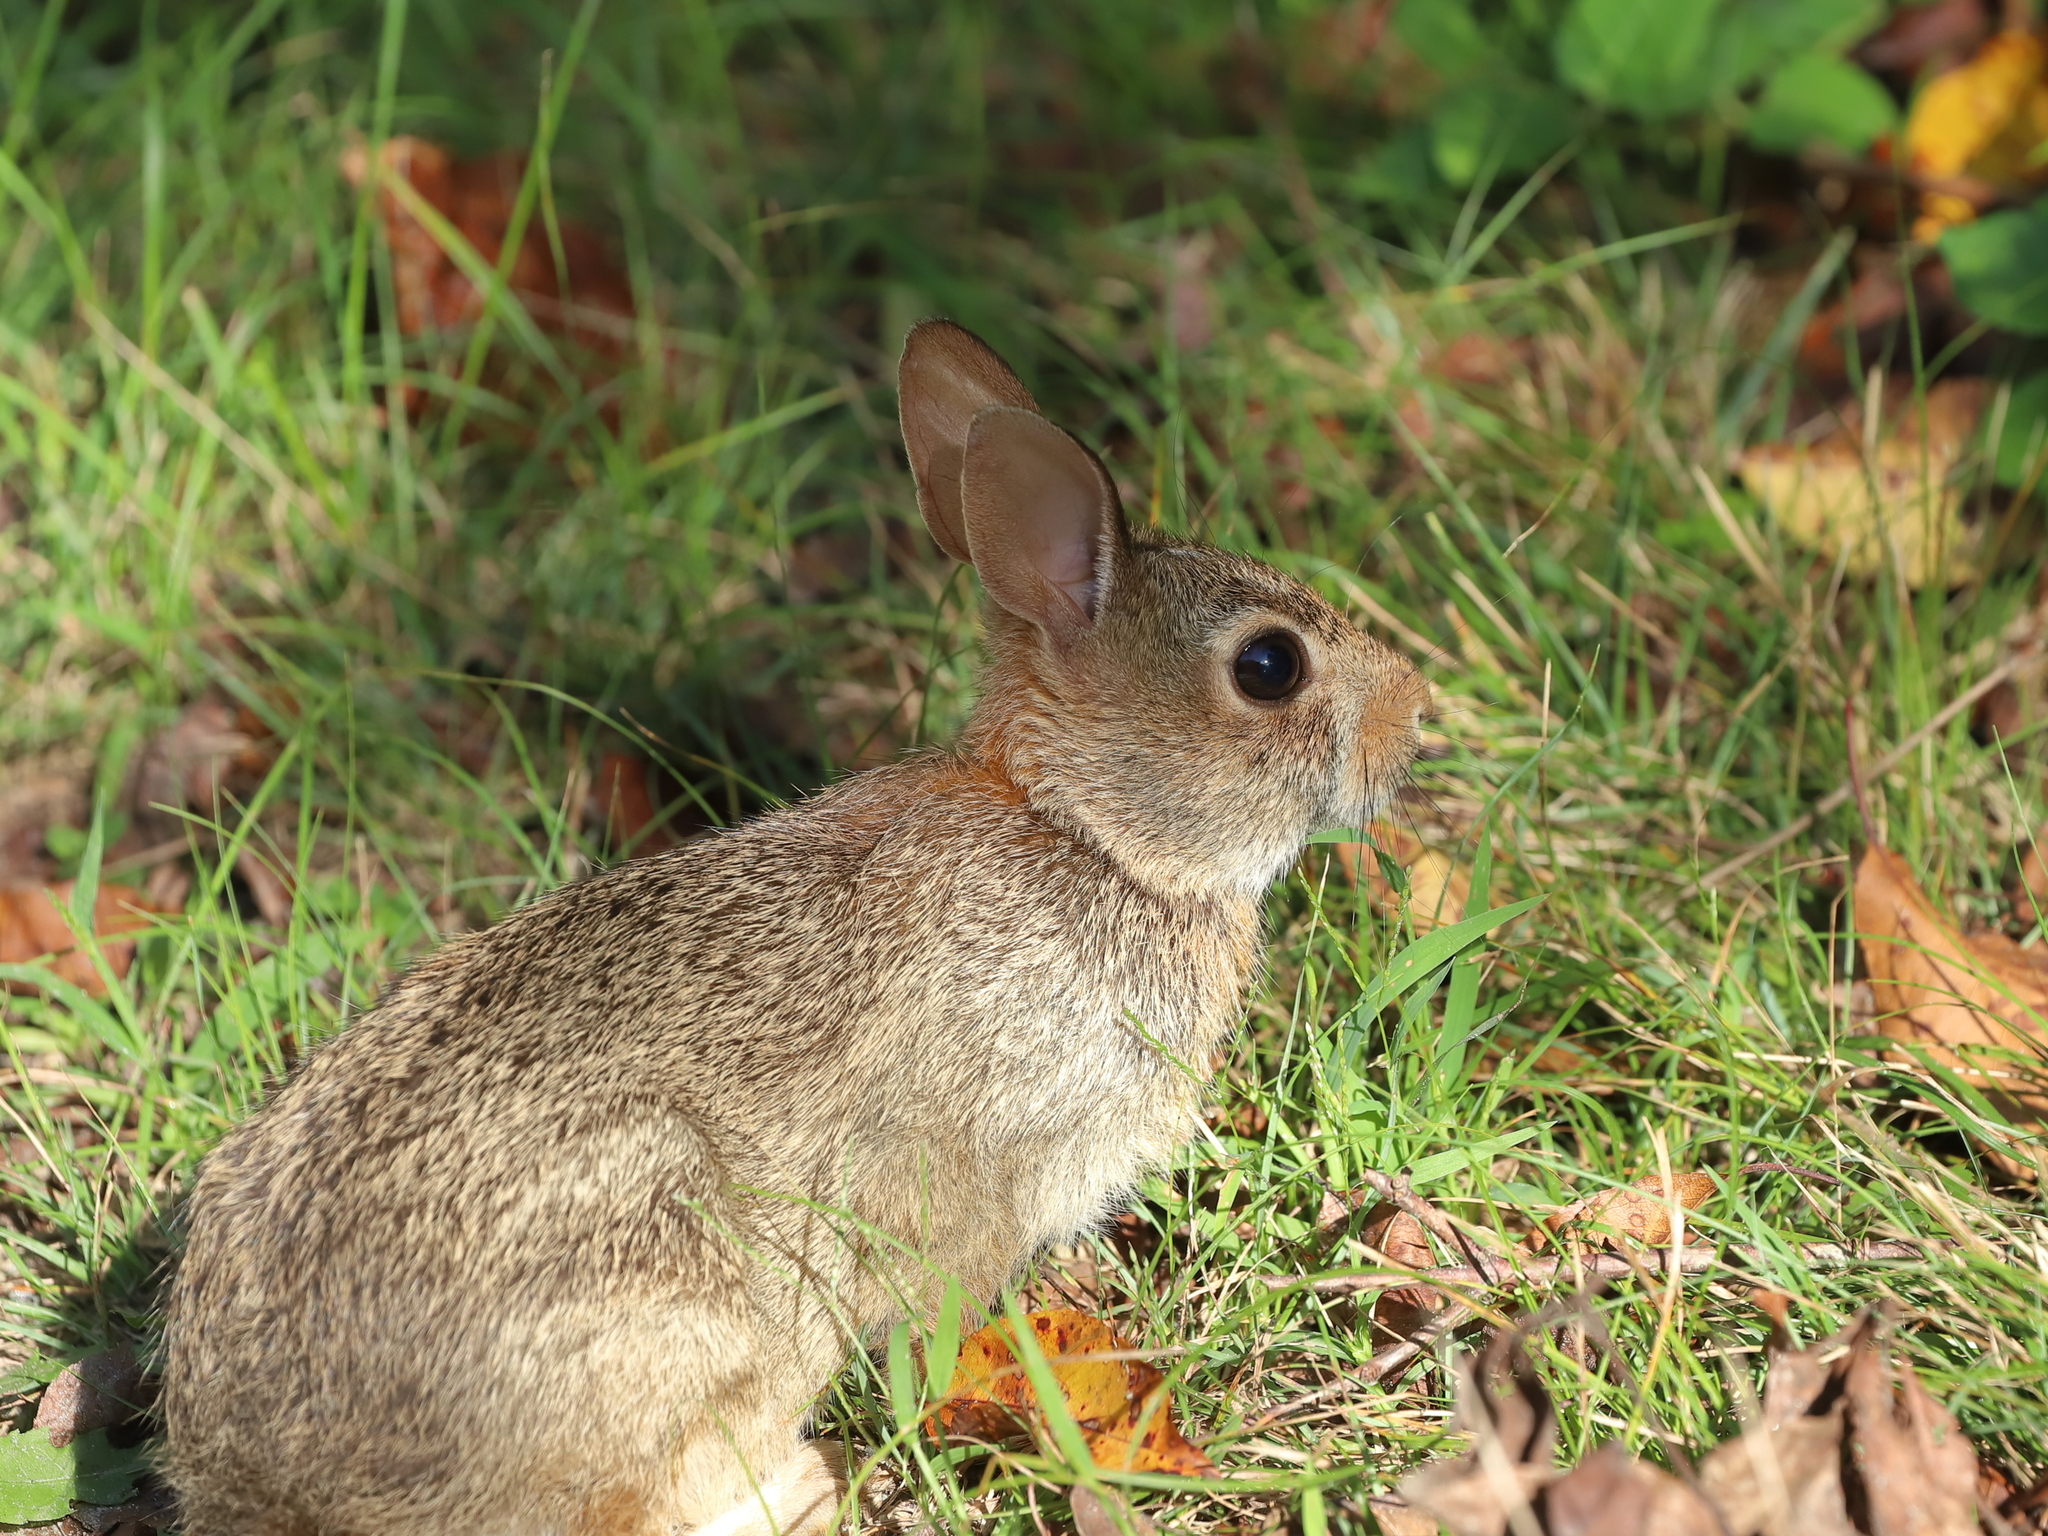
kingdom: Animalia
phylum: Chordata
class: Mammalia
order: Lagomorpha
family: Leporidae
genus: Sylvilagus
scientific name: Sylvilagus floridanus
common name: Eastern cottontail
